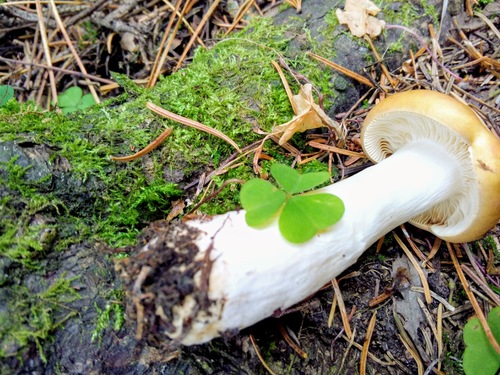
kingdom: Fungi
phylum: Basidiomycota
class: Agaricomycetes
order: Russulales
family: Russulaceae
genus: Russula
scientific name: Russula
